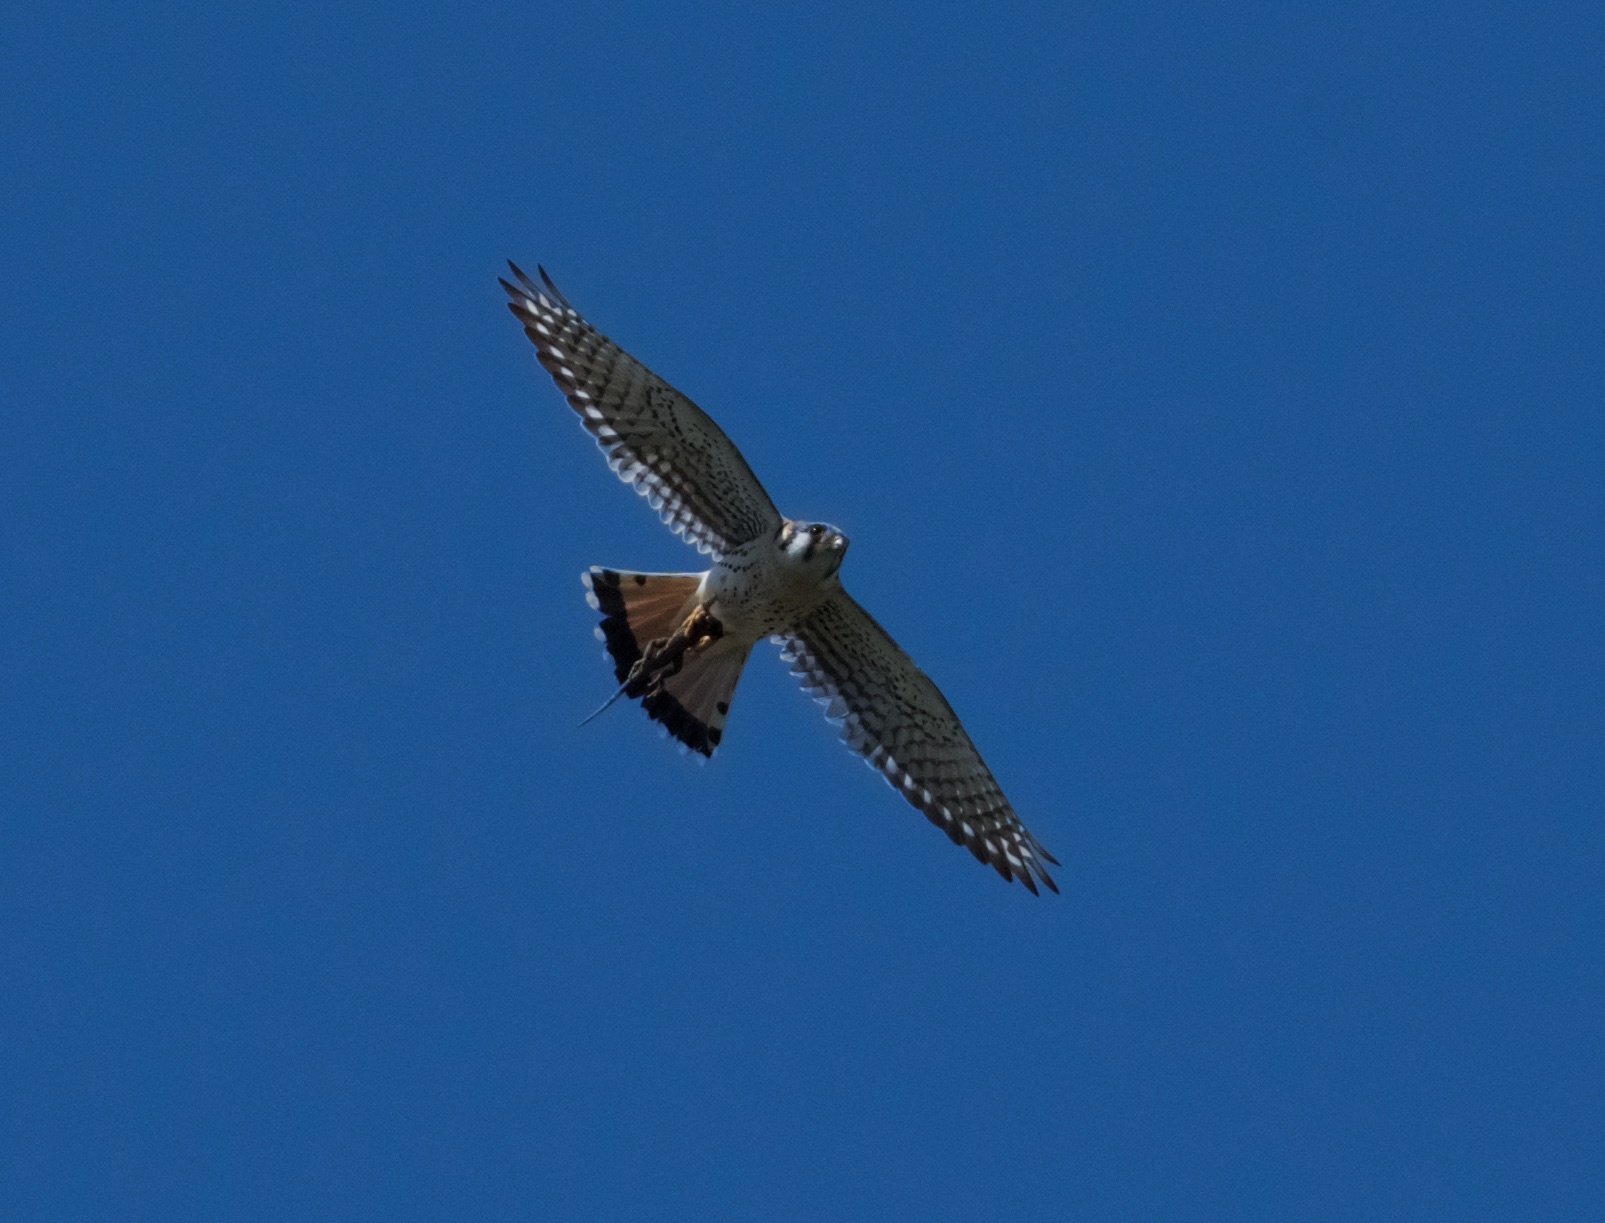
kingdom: Animalia
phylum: Chordata
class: Aves
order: Falconiformes
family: Falconidae
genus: Falco
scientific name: Falco sparverius
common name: American kestrel
